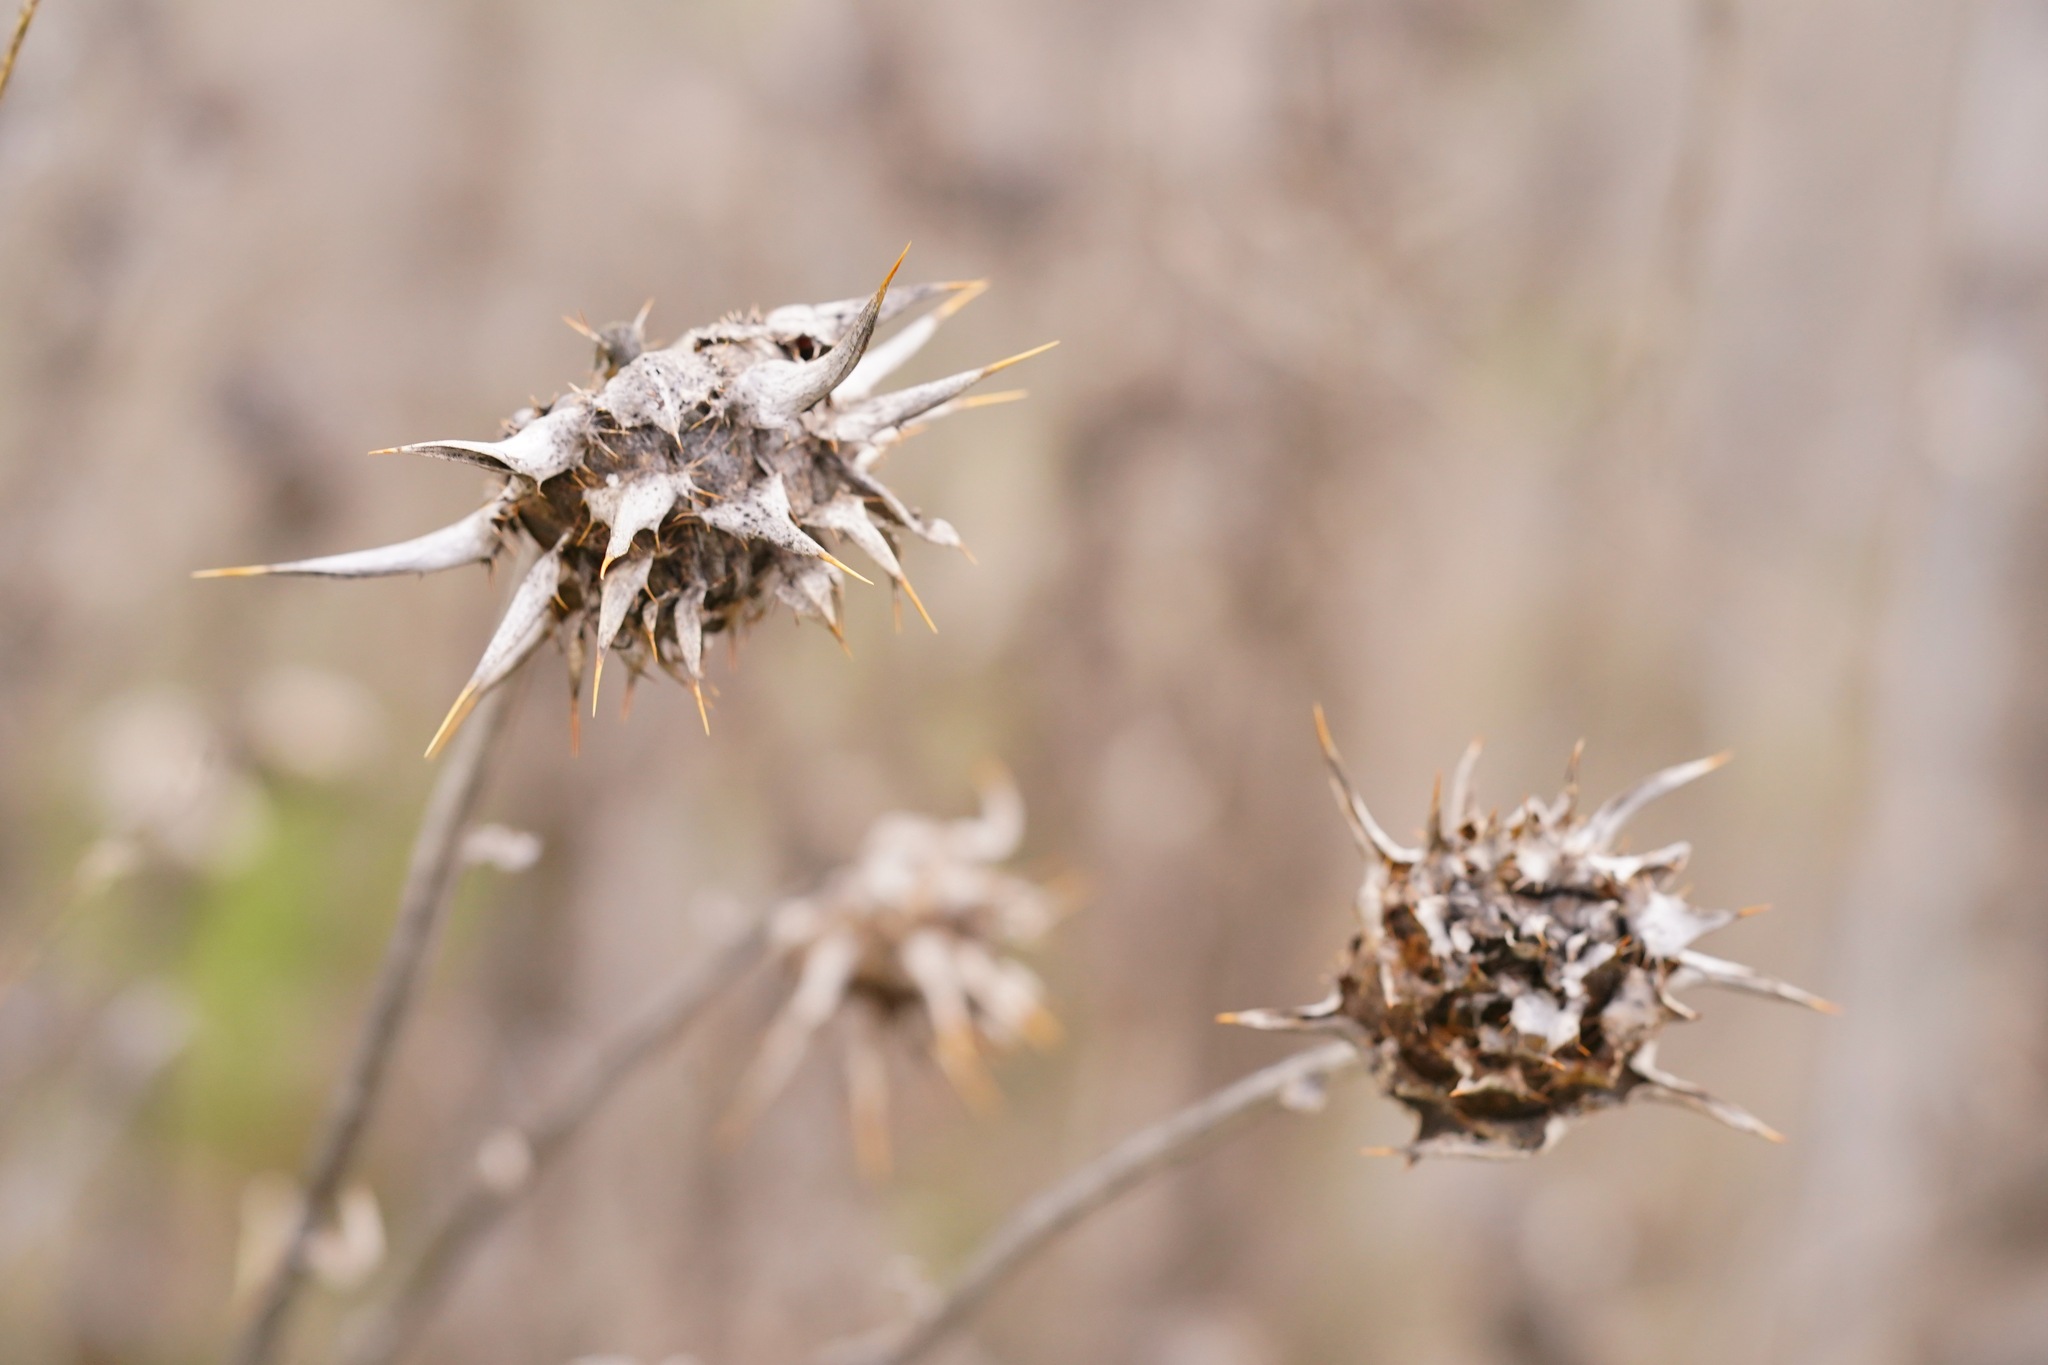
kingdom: Plantae
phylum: Tracheophyta
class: Magnoliopsida
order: Asterales
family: Asteraceae
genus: Silybum
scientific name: Silybum marianum
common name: Milk thistle
